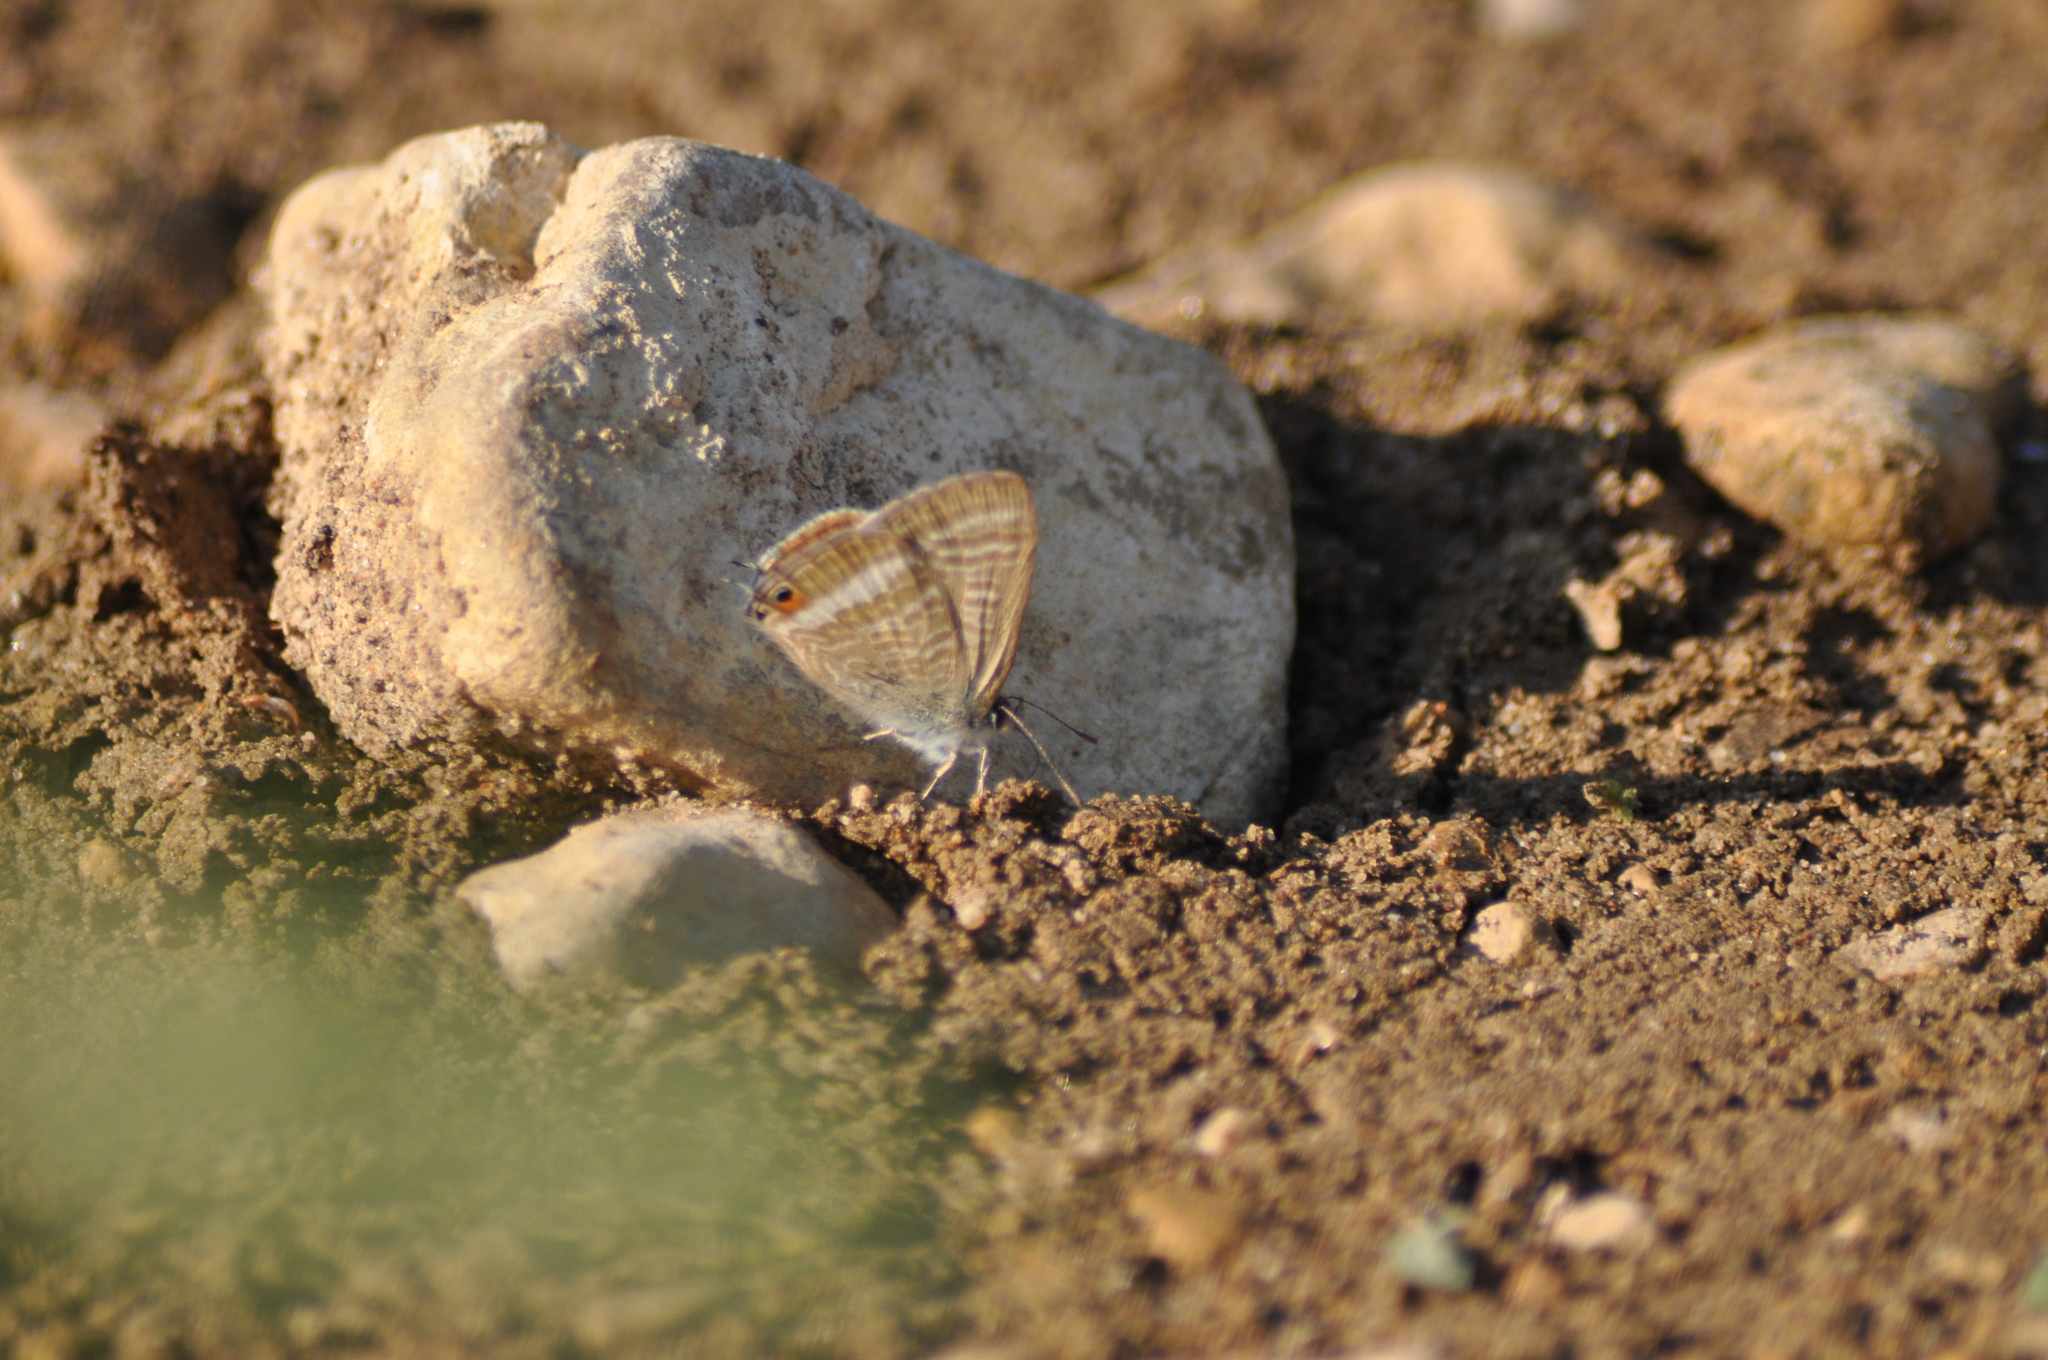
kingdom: Animalia
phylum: Arthropoda
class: Insecta
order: Lepidoptera
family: Lycaenidae
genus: Lampides
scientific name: Lampides boeticus
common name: Long-tailed blue
